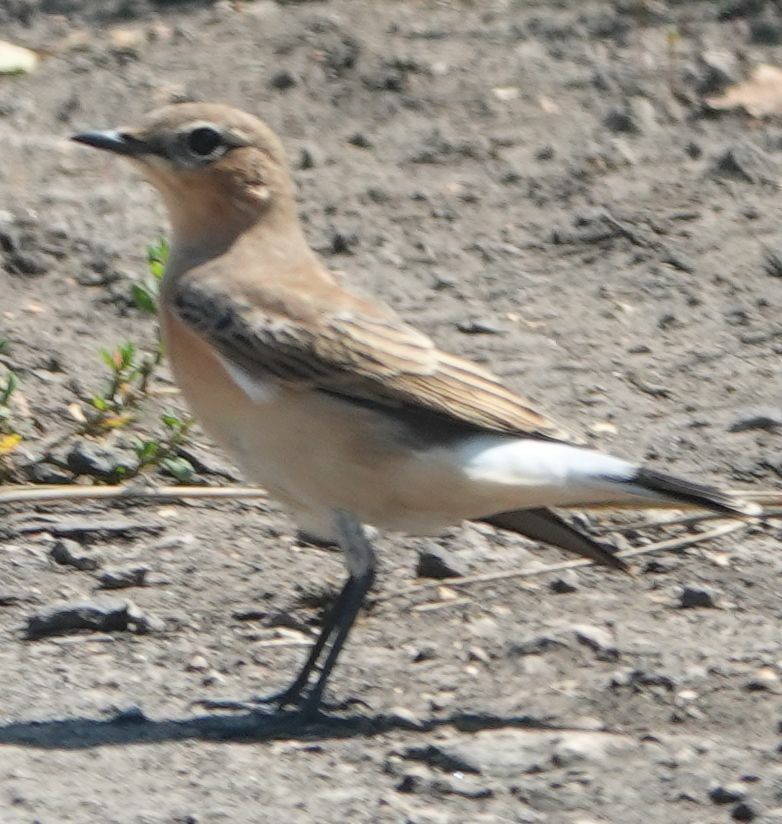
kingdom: Animalia
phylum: Chordata
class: Aves
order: Passeriformes
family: Muscicapidae
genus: Oenanthe
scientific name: Oenanthe oenanthe
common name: Northern wheatear
